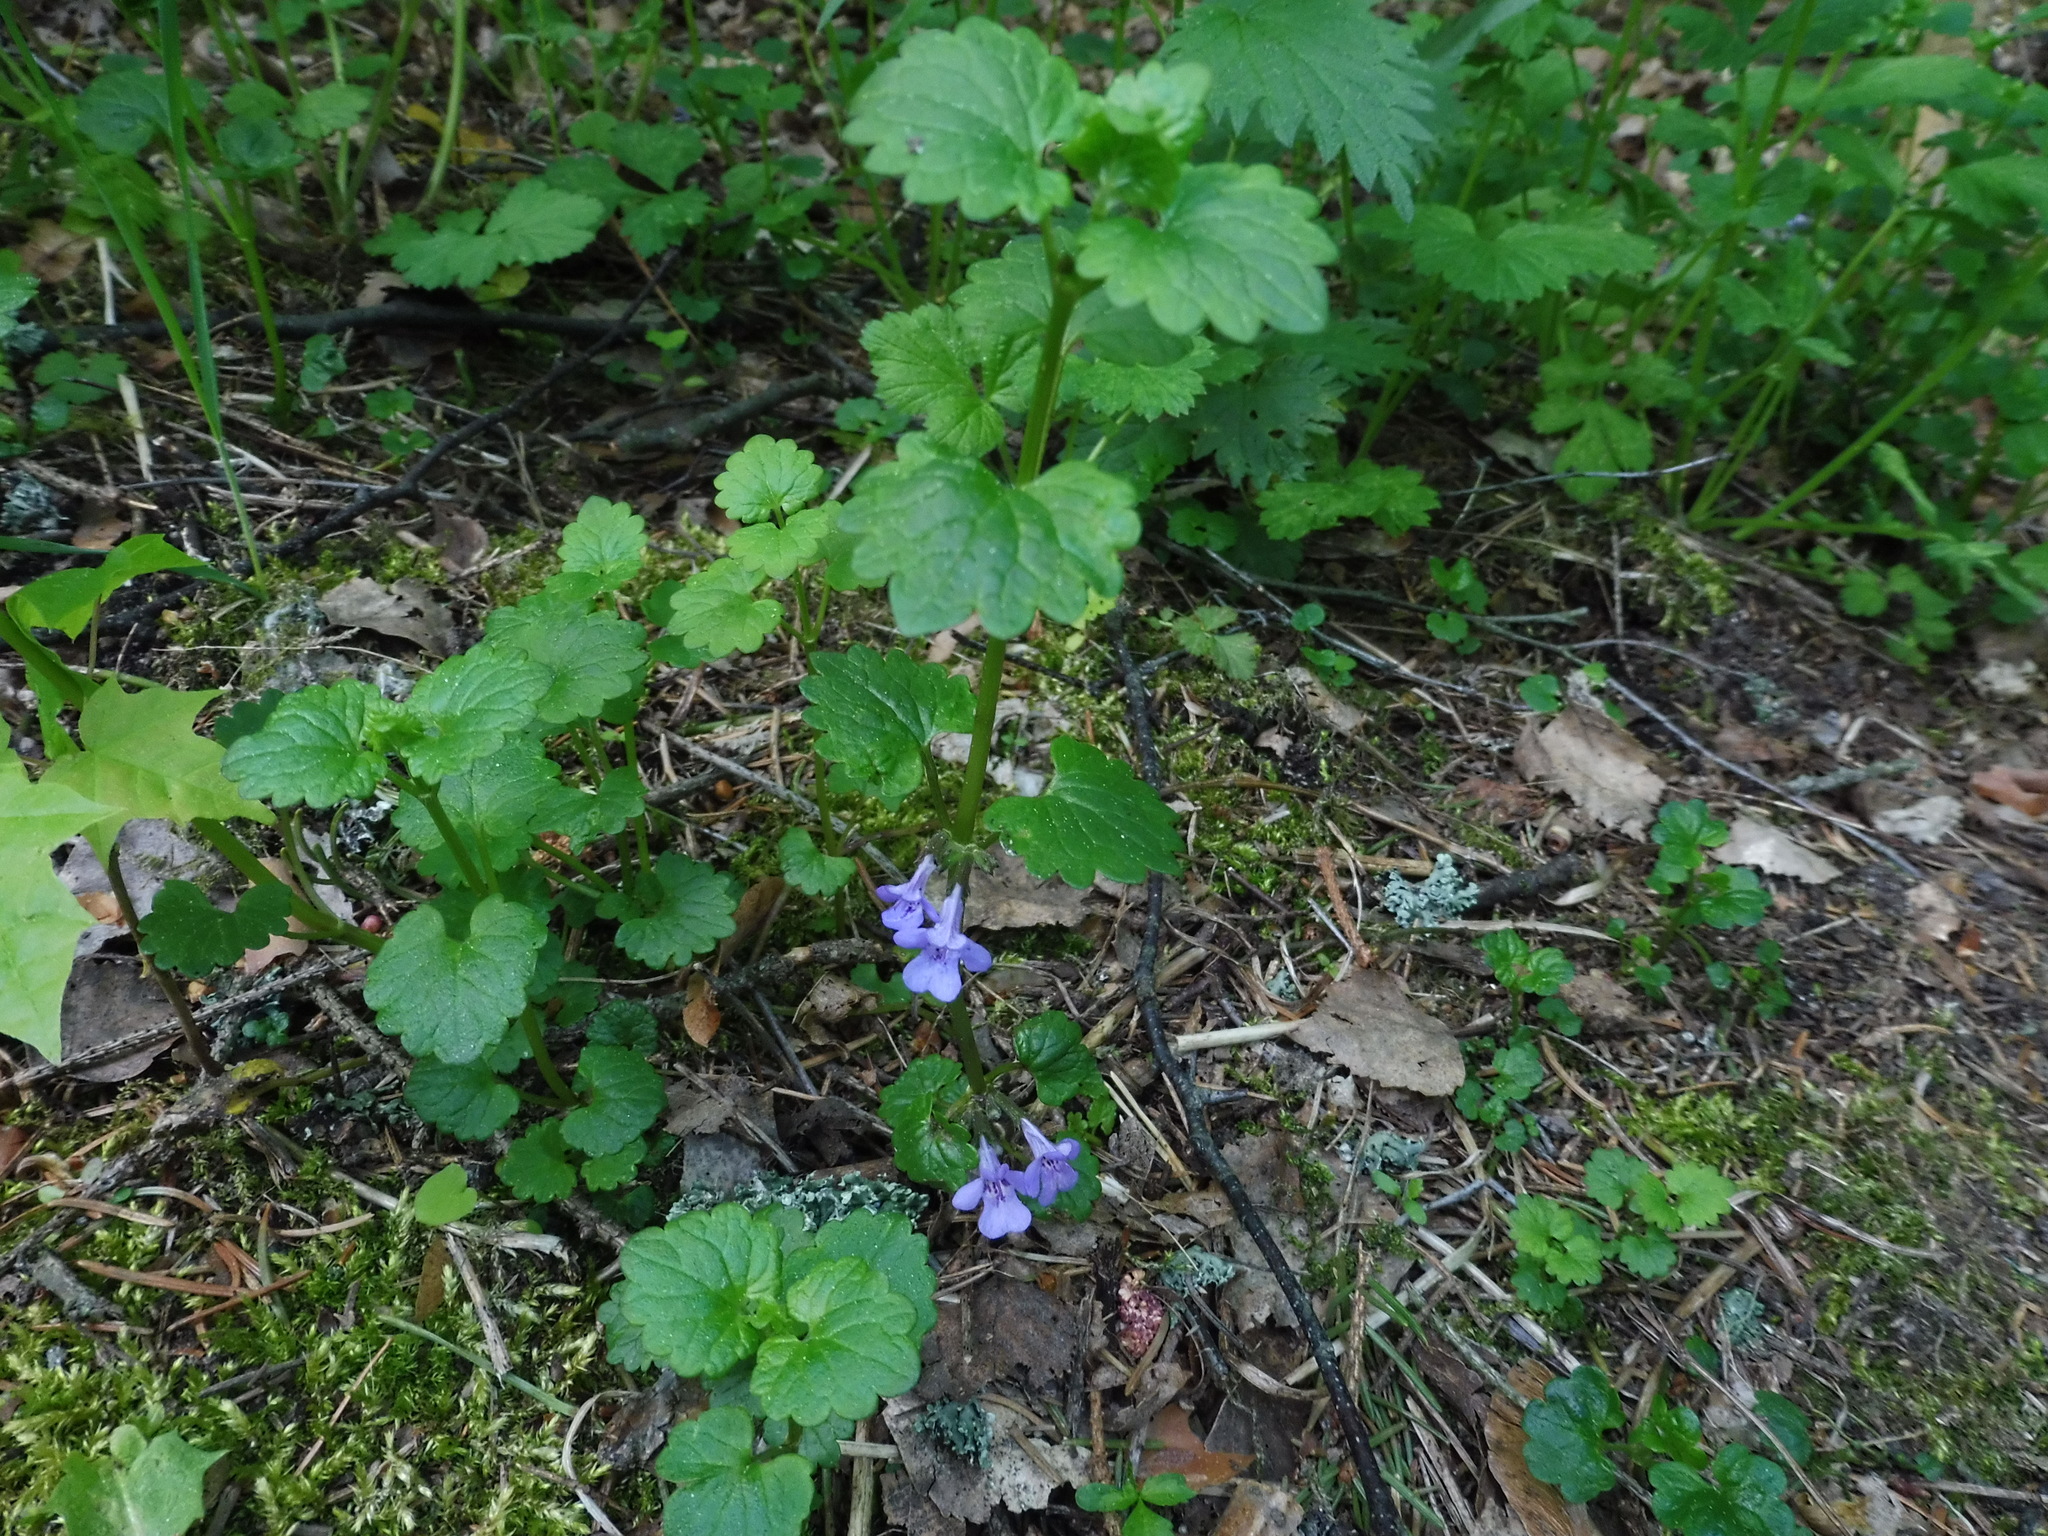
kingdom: Plantae
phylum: Tracheophyta
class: Magnoliopsida
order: Lamiales
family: Lamiaceae
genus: Glechoma
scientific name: Glechoma hederacea
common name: Ground ivy
